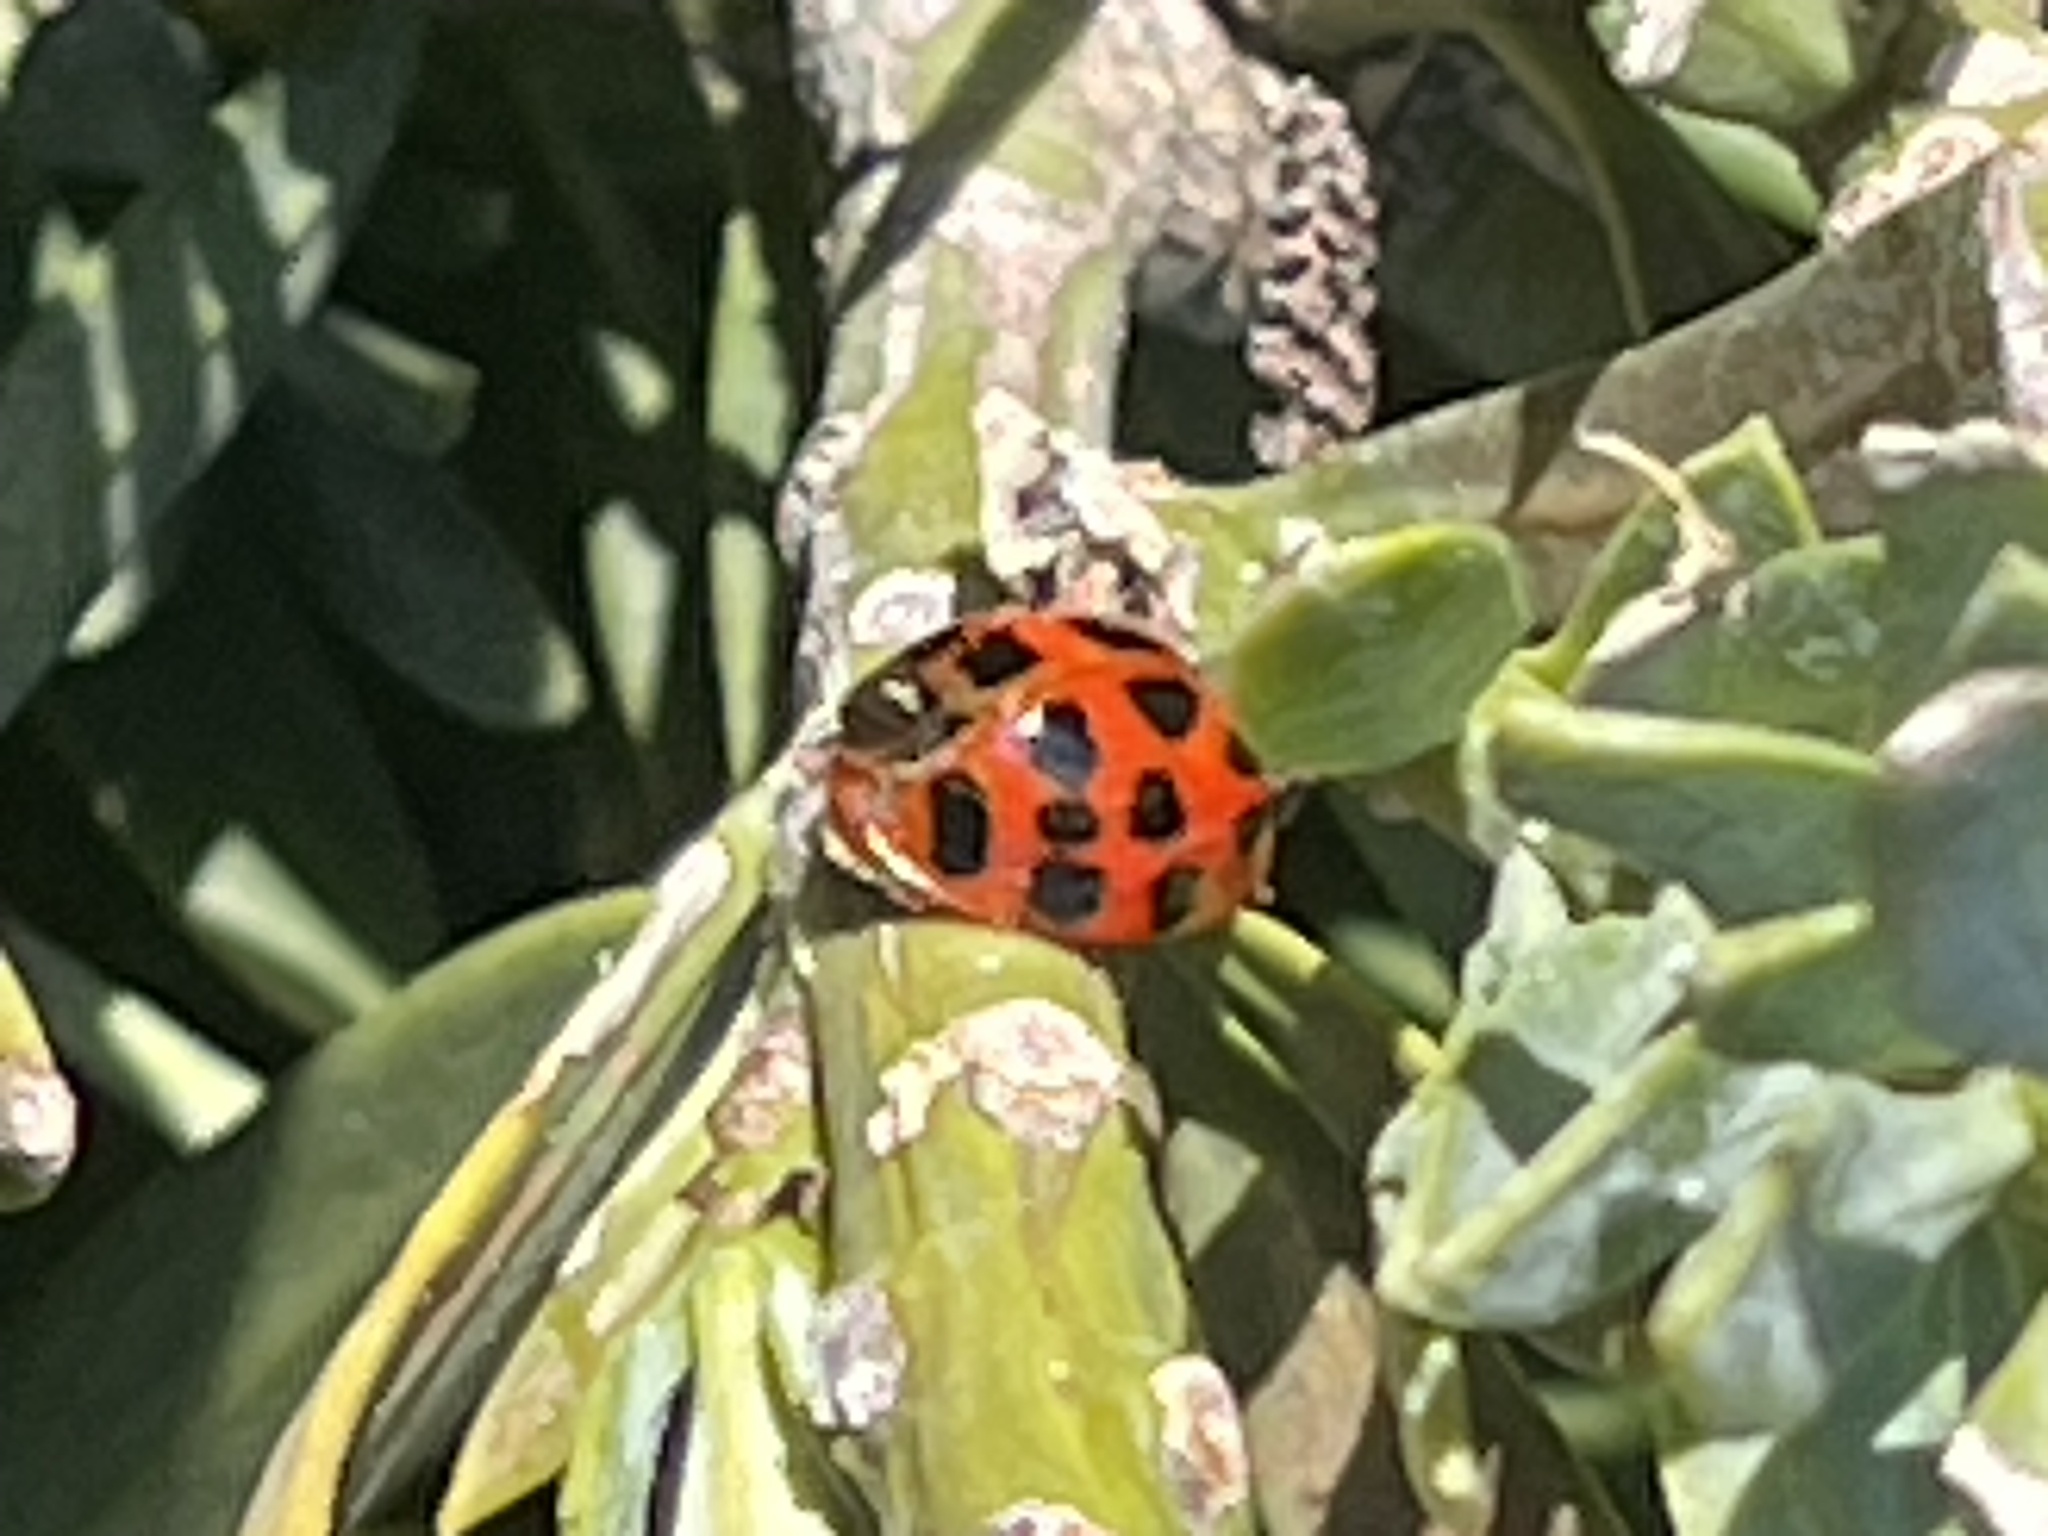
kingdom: Animalia
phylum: Arthropoda
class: Insecta
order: Coleoptera
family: Coccinellidae
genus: Harmonia
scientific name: Harmonia axyridis
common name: Harlequin ladybird
